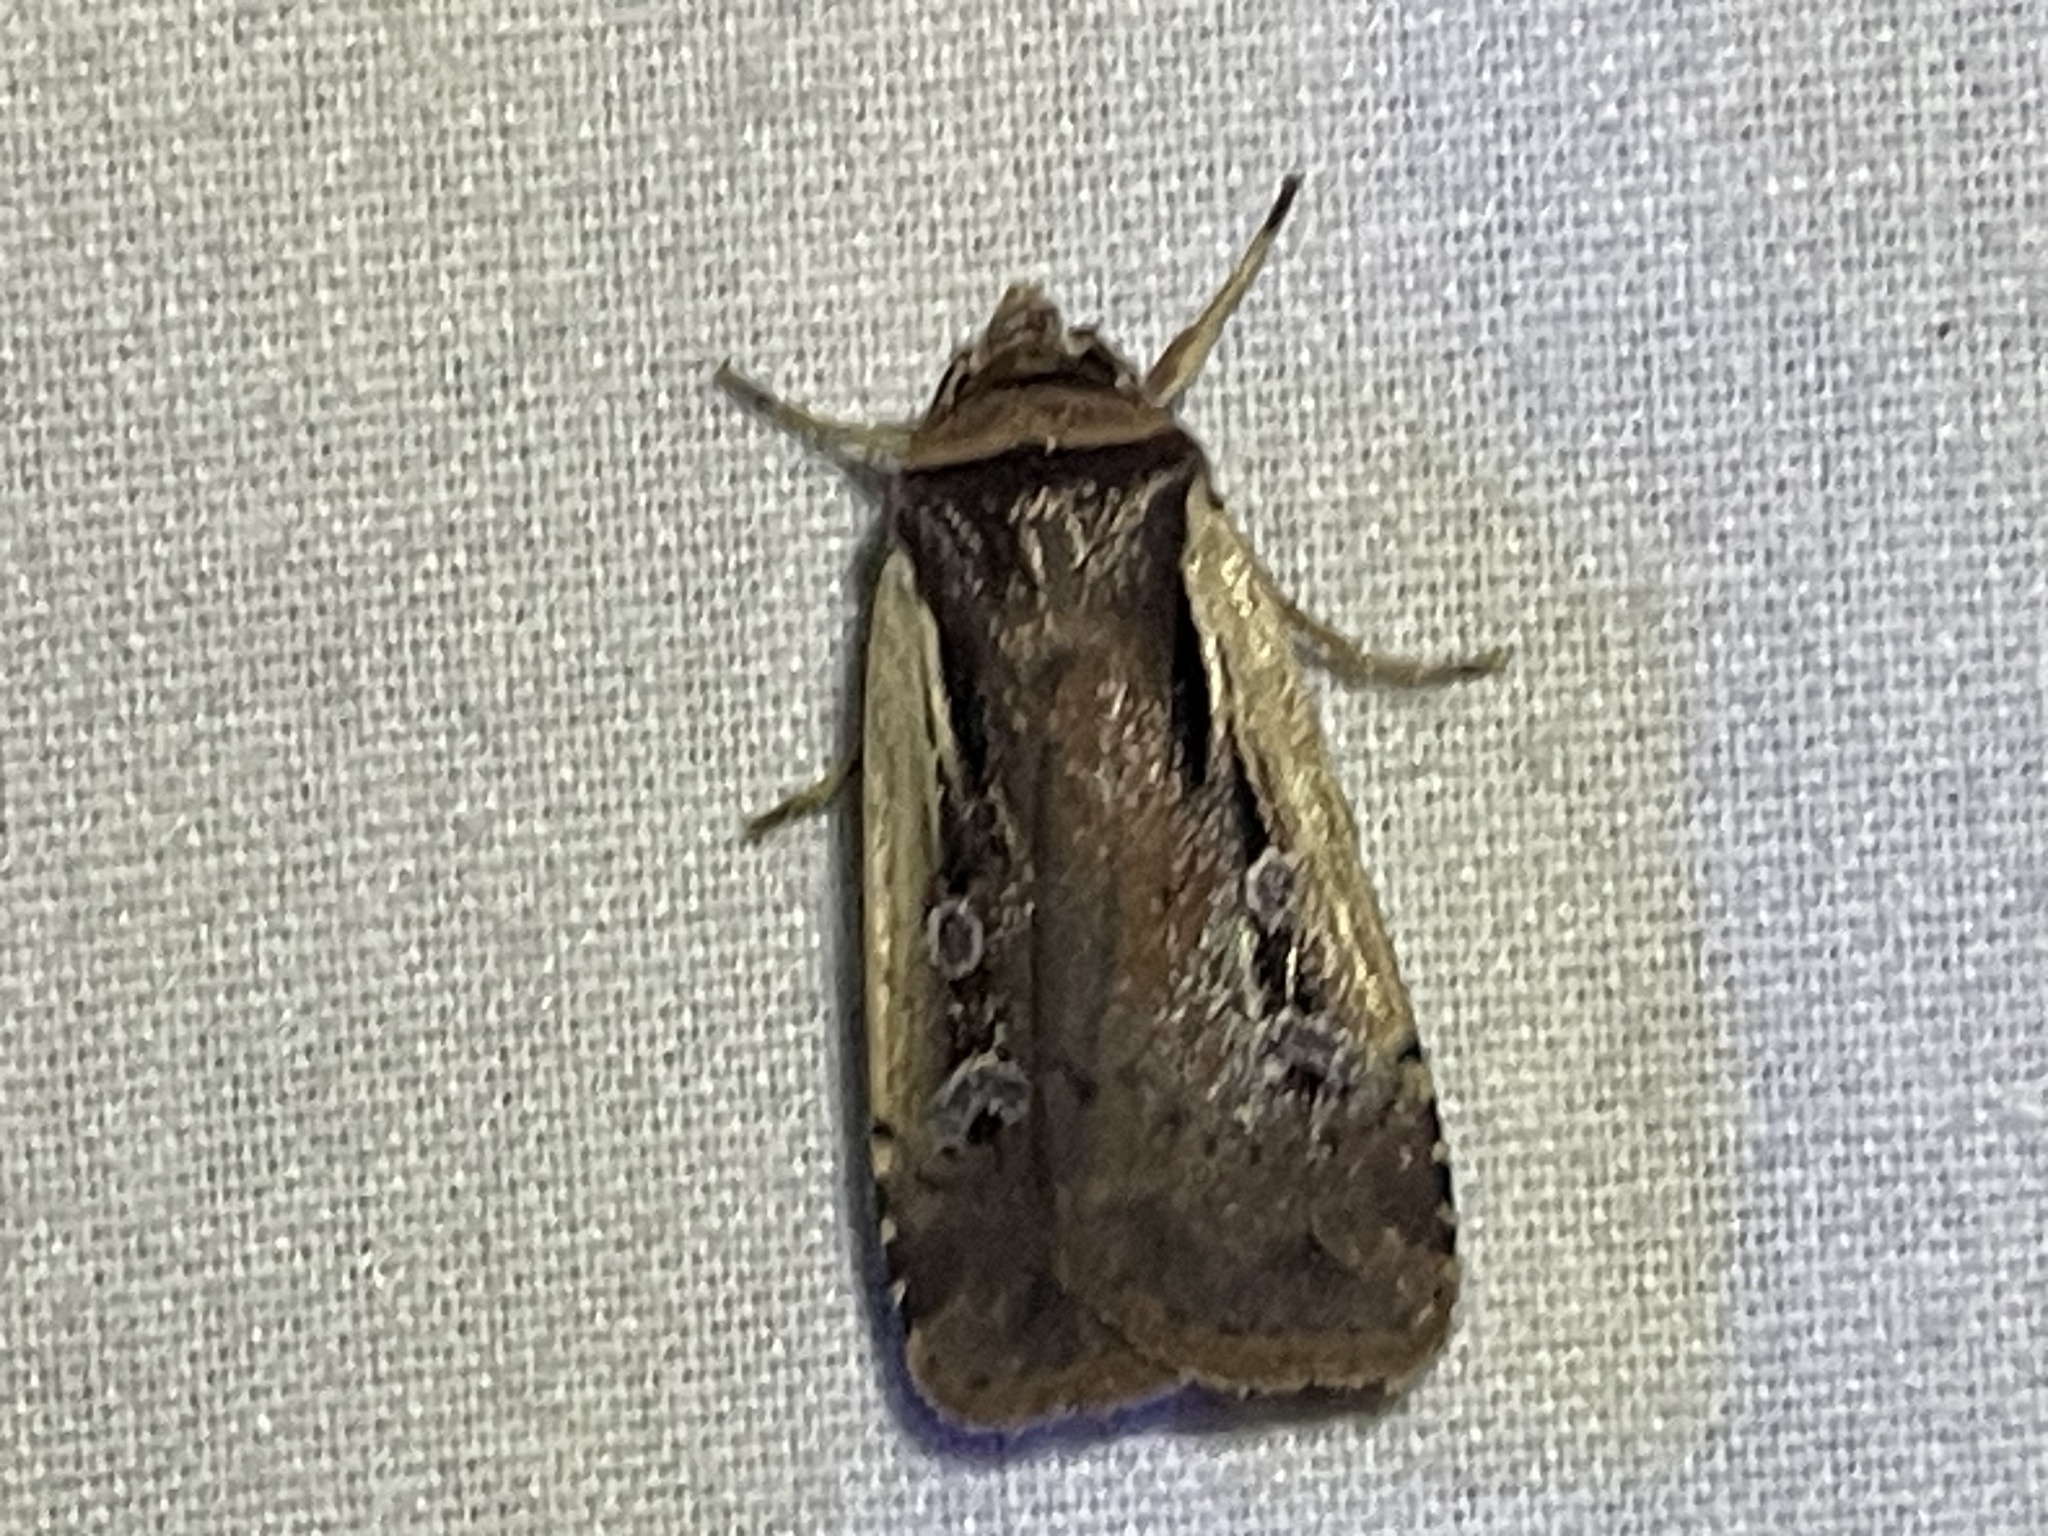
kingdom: Animalia
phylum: Arthropoda
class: Insecta
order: Lepidoptera
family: Noctuidae
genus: Ochropleura
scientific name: Ochropleura implecta
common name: Flame-shouldered dart
